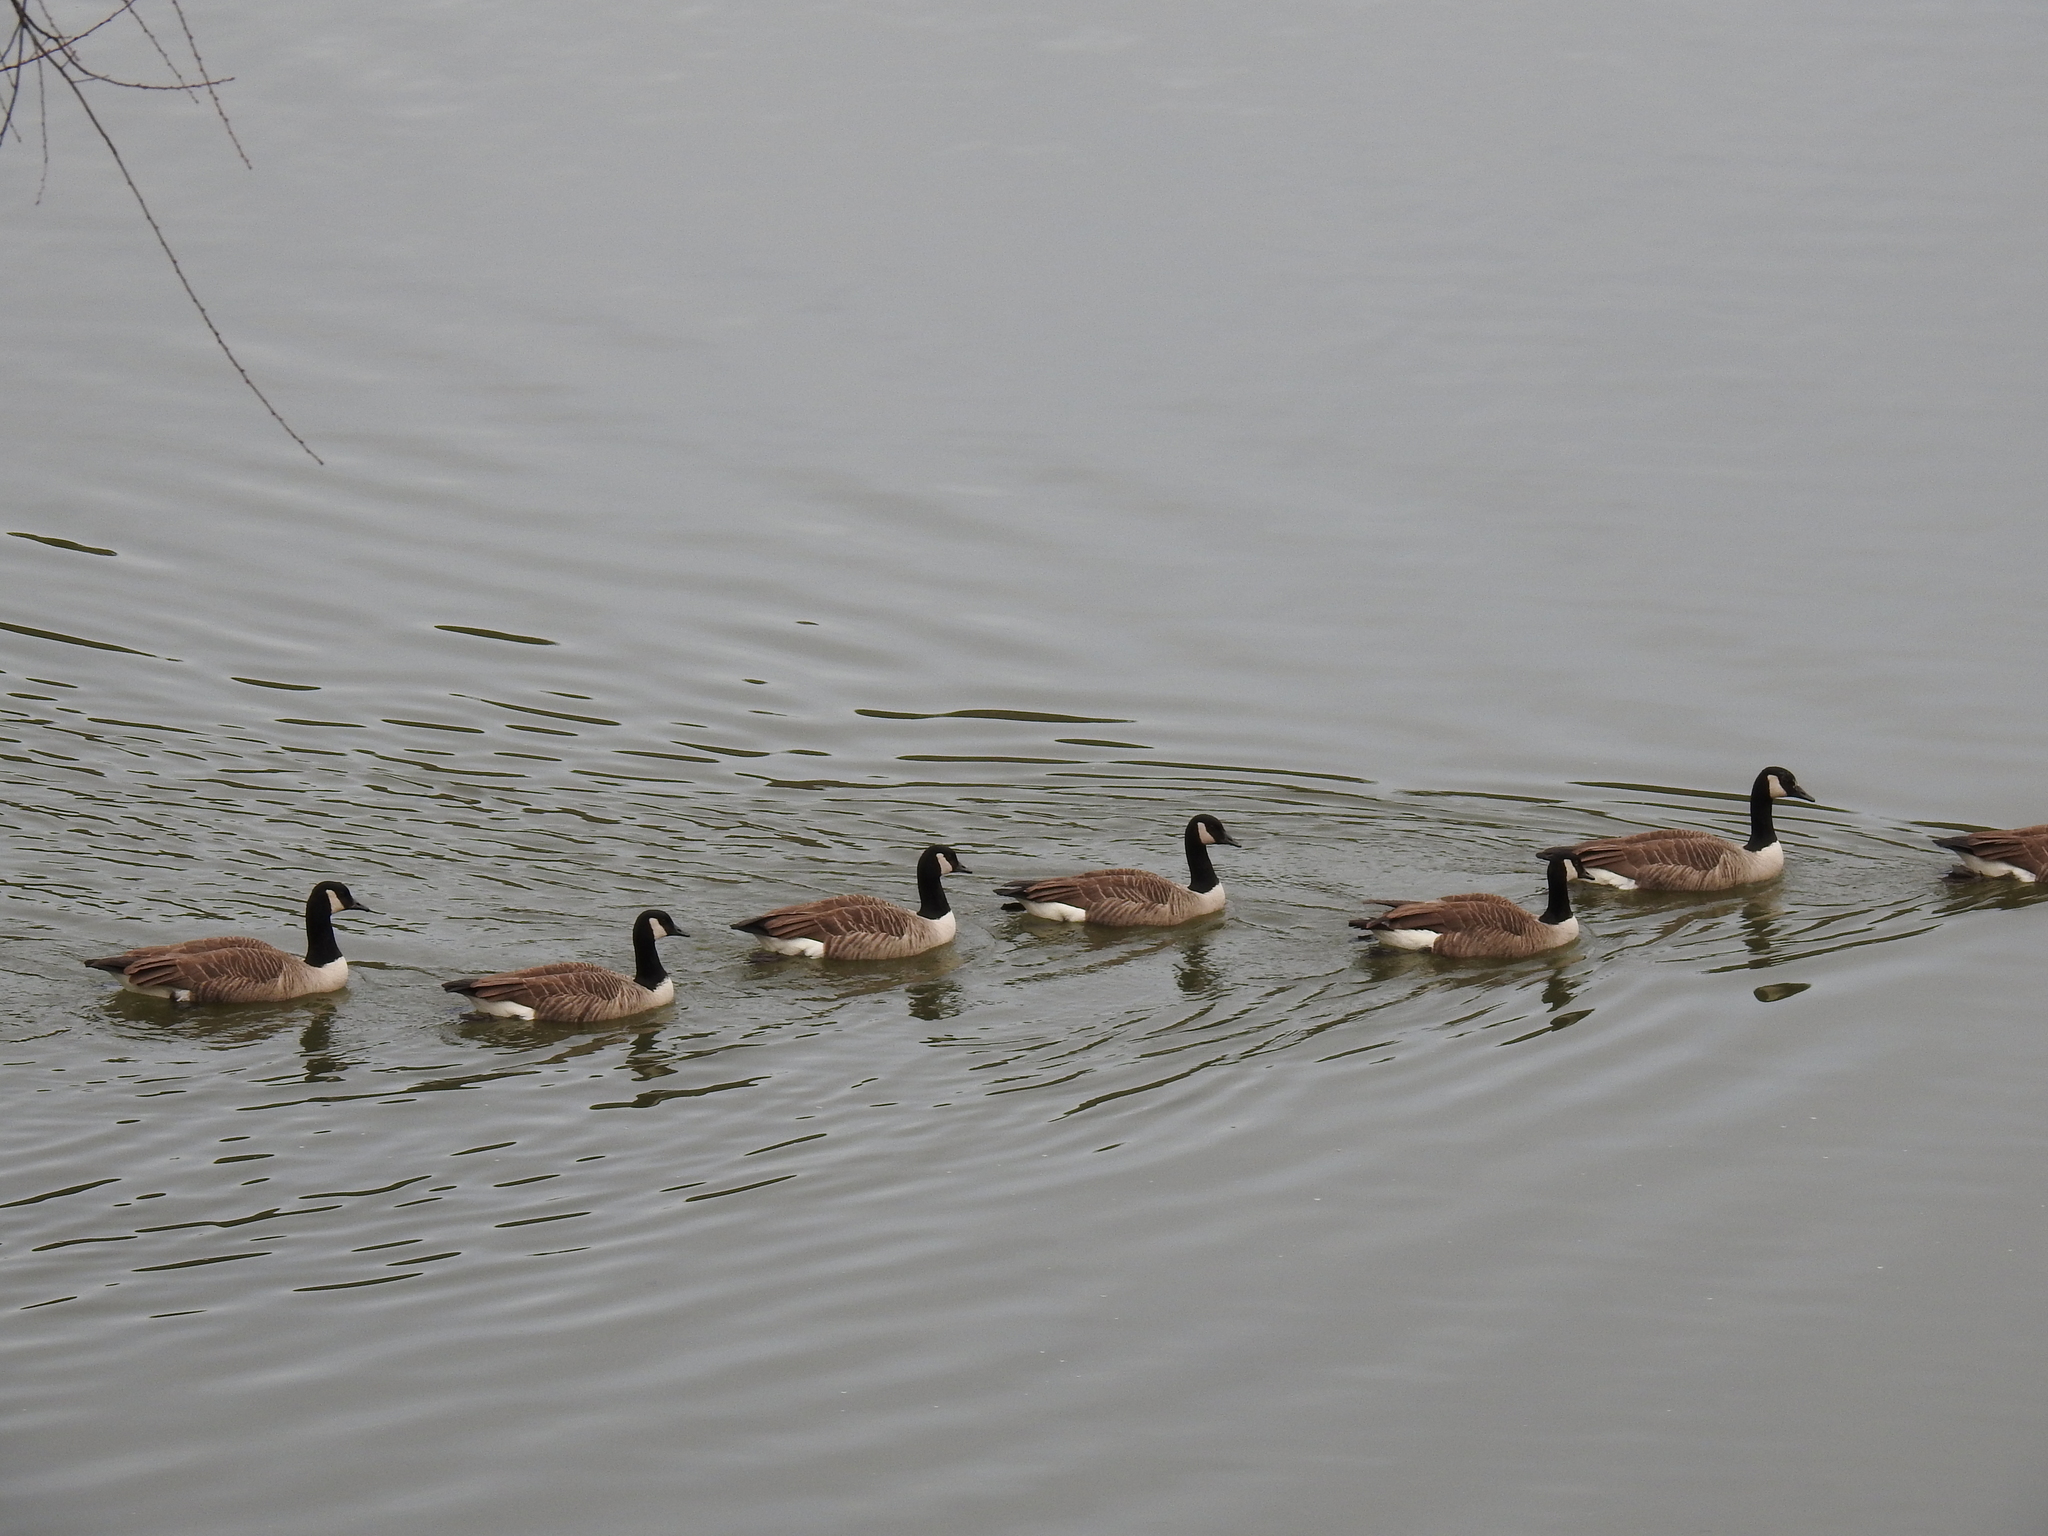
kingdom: Animalia
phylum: Chordata
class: Aves
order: Anseriformes
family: Anatidae
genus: Branta
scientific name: Branta canadensis
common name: Canada goose
